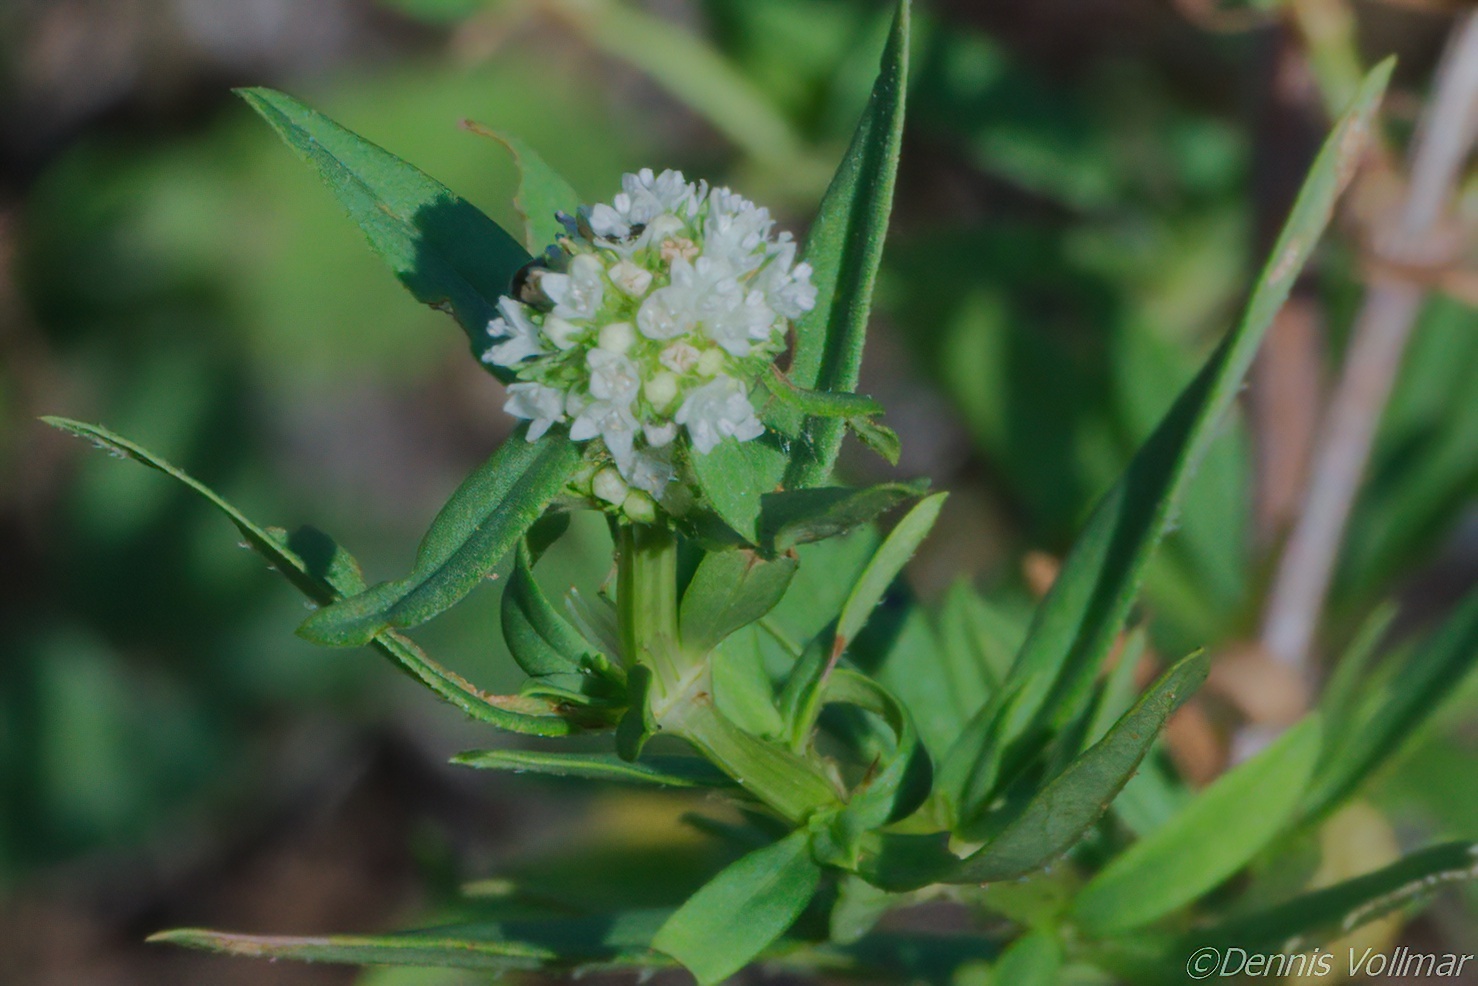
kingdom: Plantae
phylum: Tracheophyta
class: Magnoliopsida
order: Gentianales
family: Rubiaceae
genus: Spermacoce
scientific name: Spermacoce verticillata
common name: Shrubby false buttonweed
